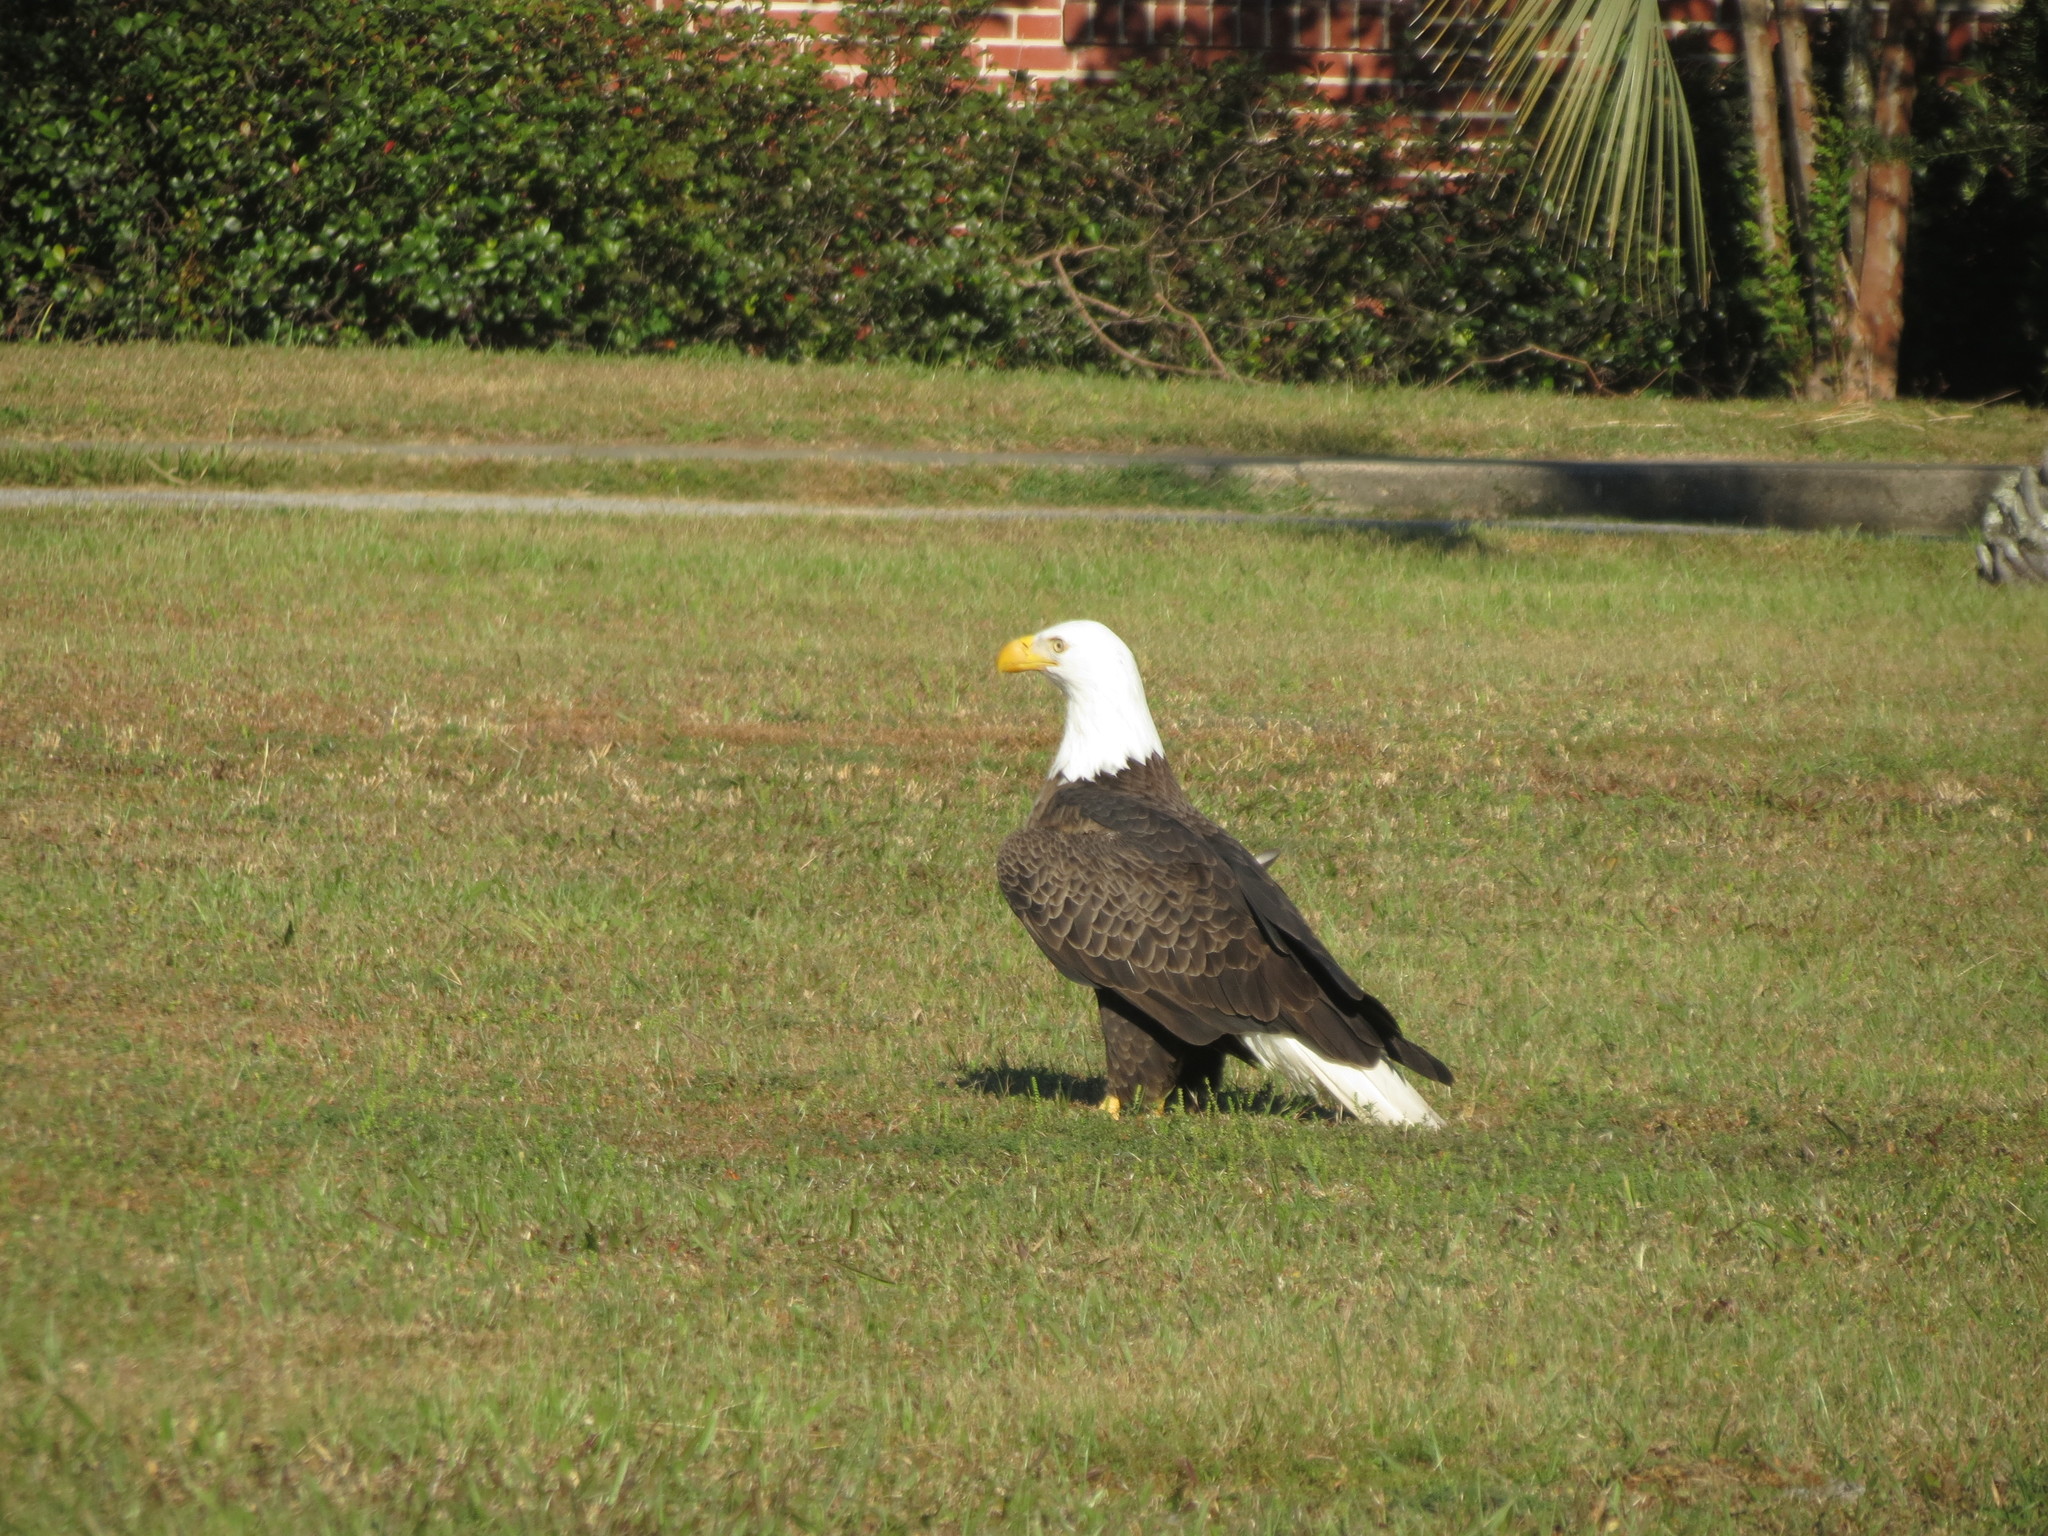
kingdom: Animalia
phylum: Chordata
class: Aves
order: Accipitriformes
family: Accipitridae
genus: Haliaeetus
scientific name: Haliaeetus leucocephalus
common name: Bald eagle
